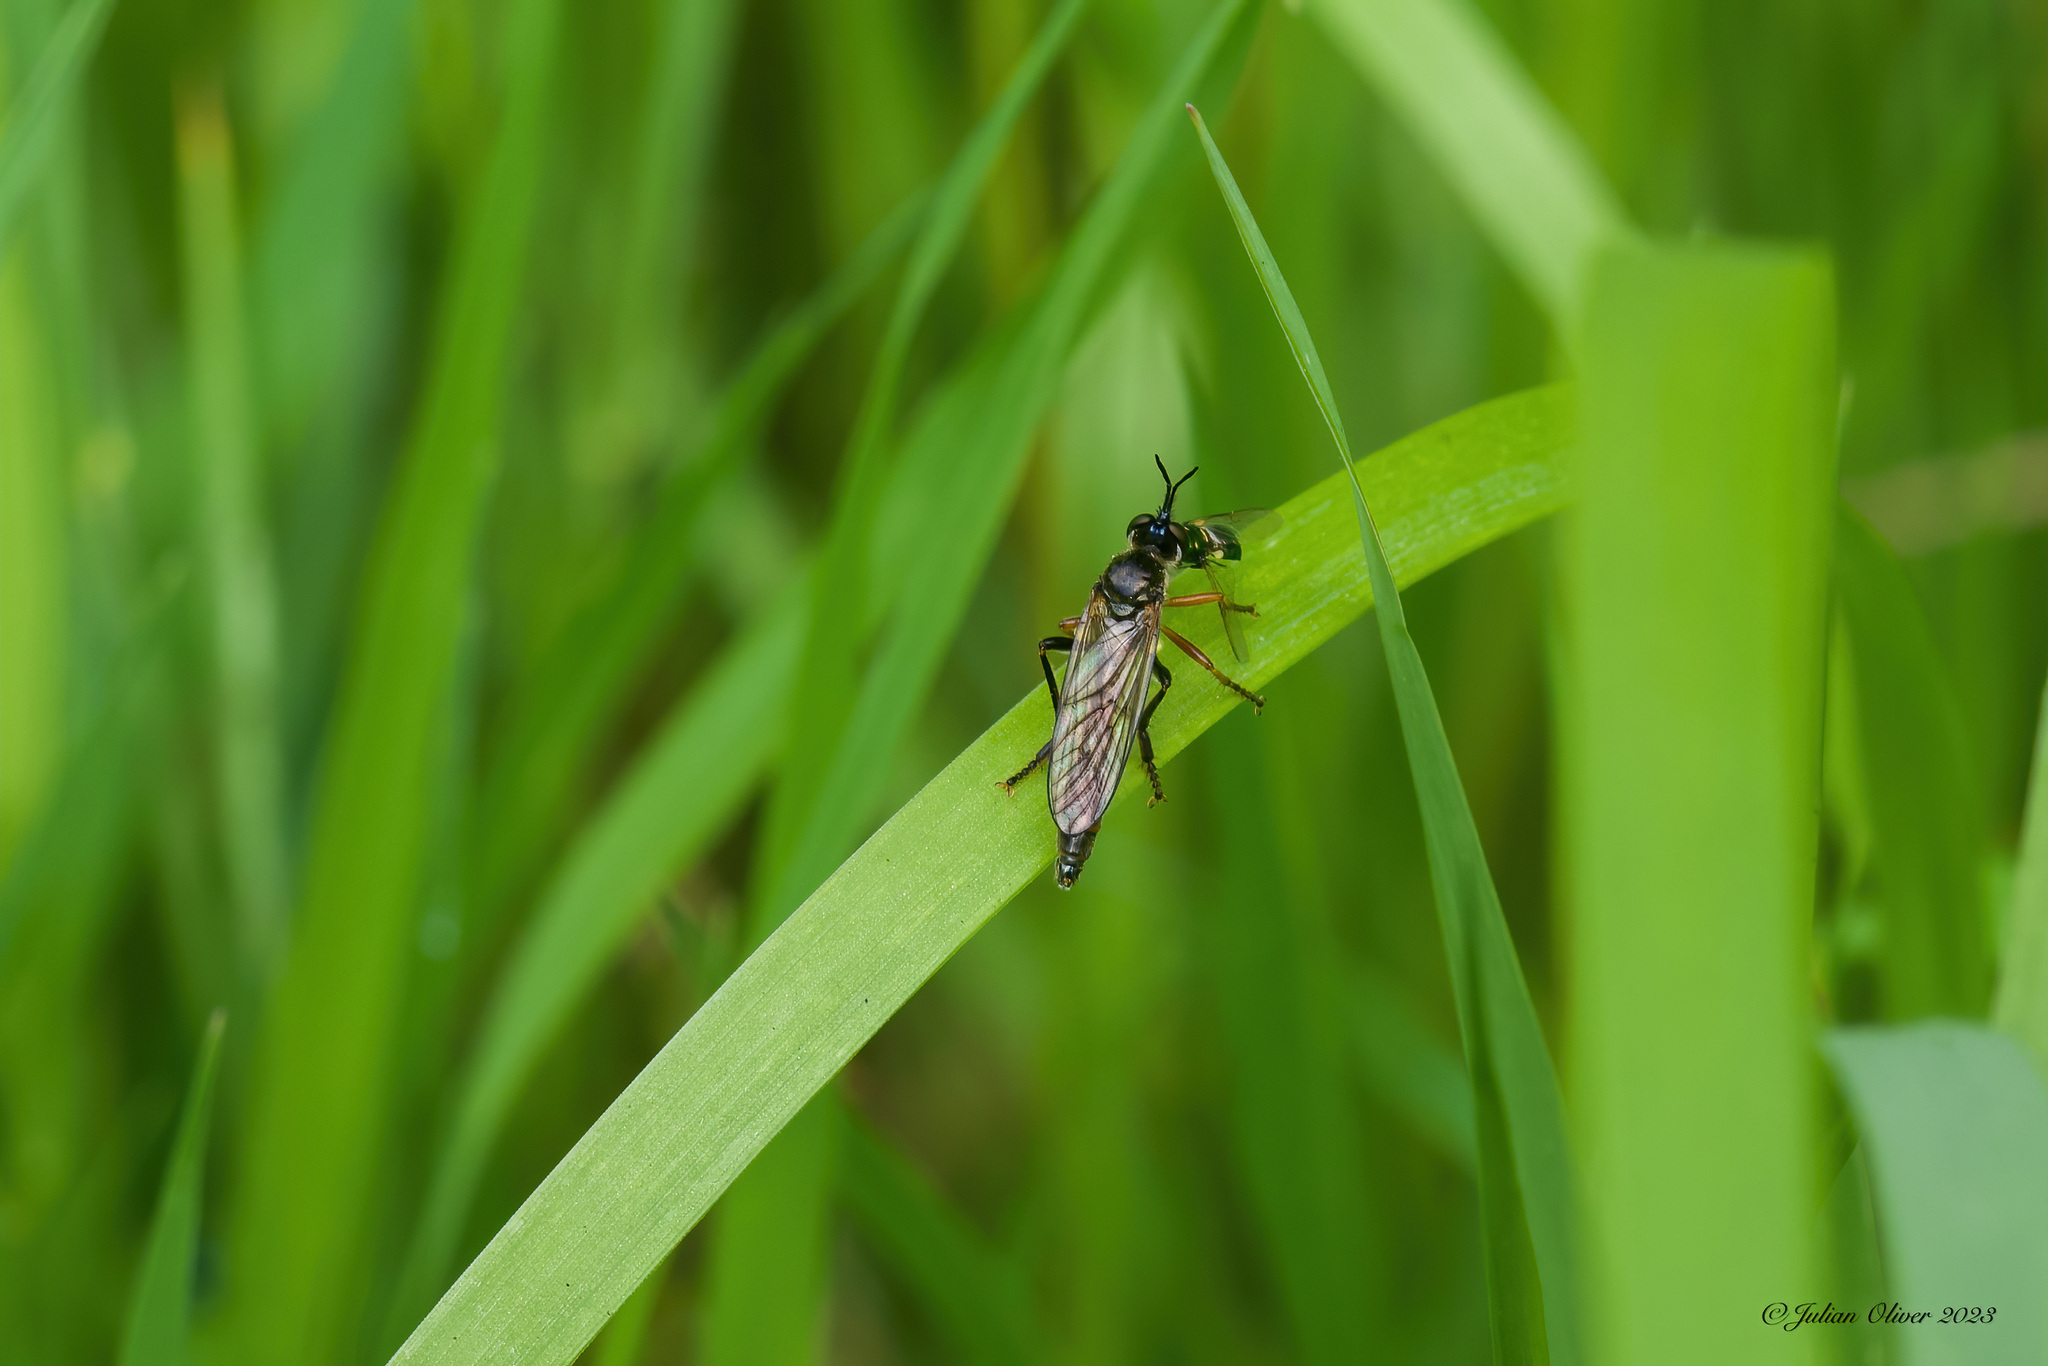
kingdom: Animalia
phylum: Arthropoda
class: Insecta
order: Diptera
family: Asilidae
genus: Dioctria
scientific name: Dioctria rufipes
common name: Common red-legged robberfly
